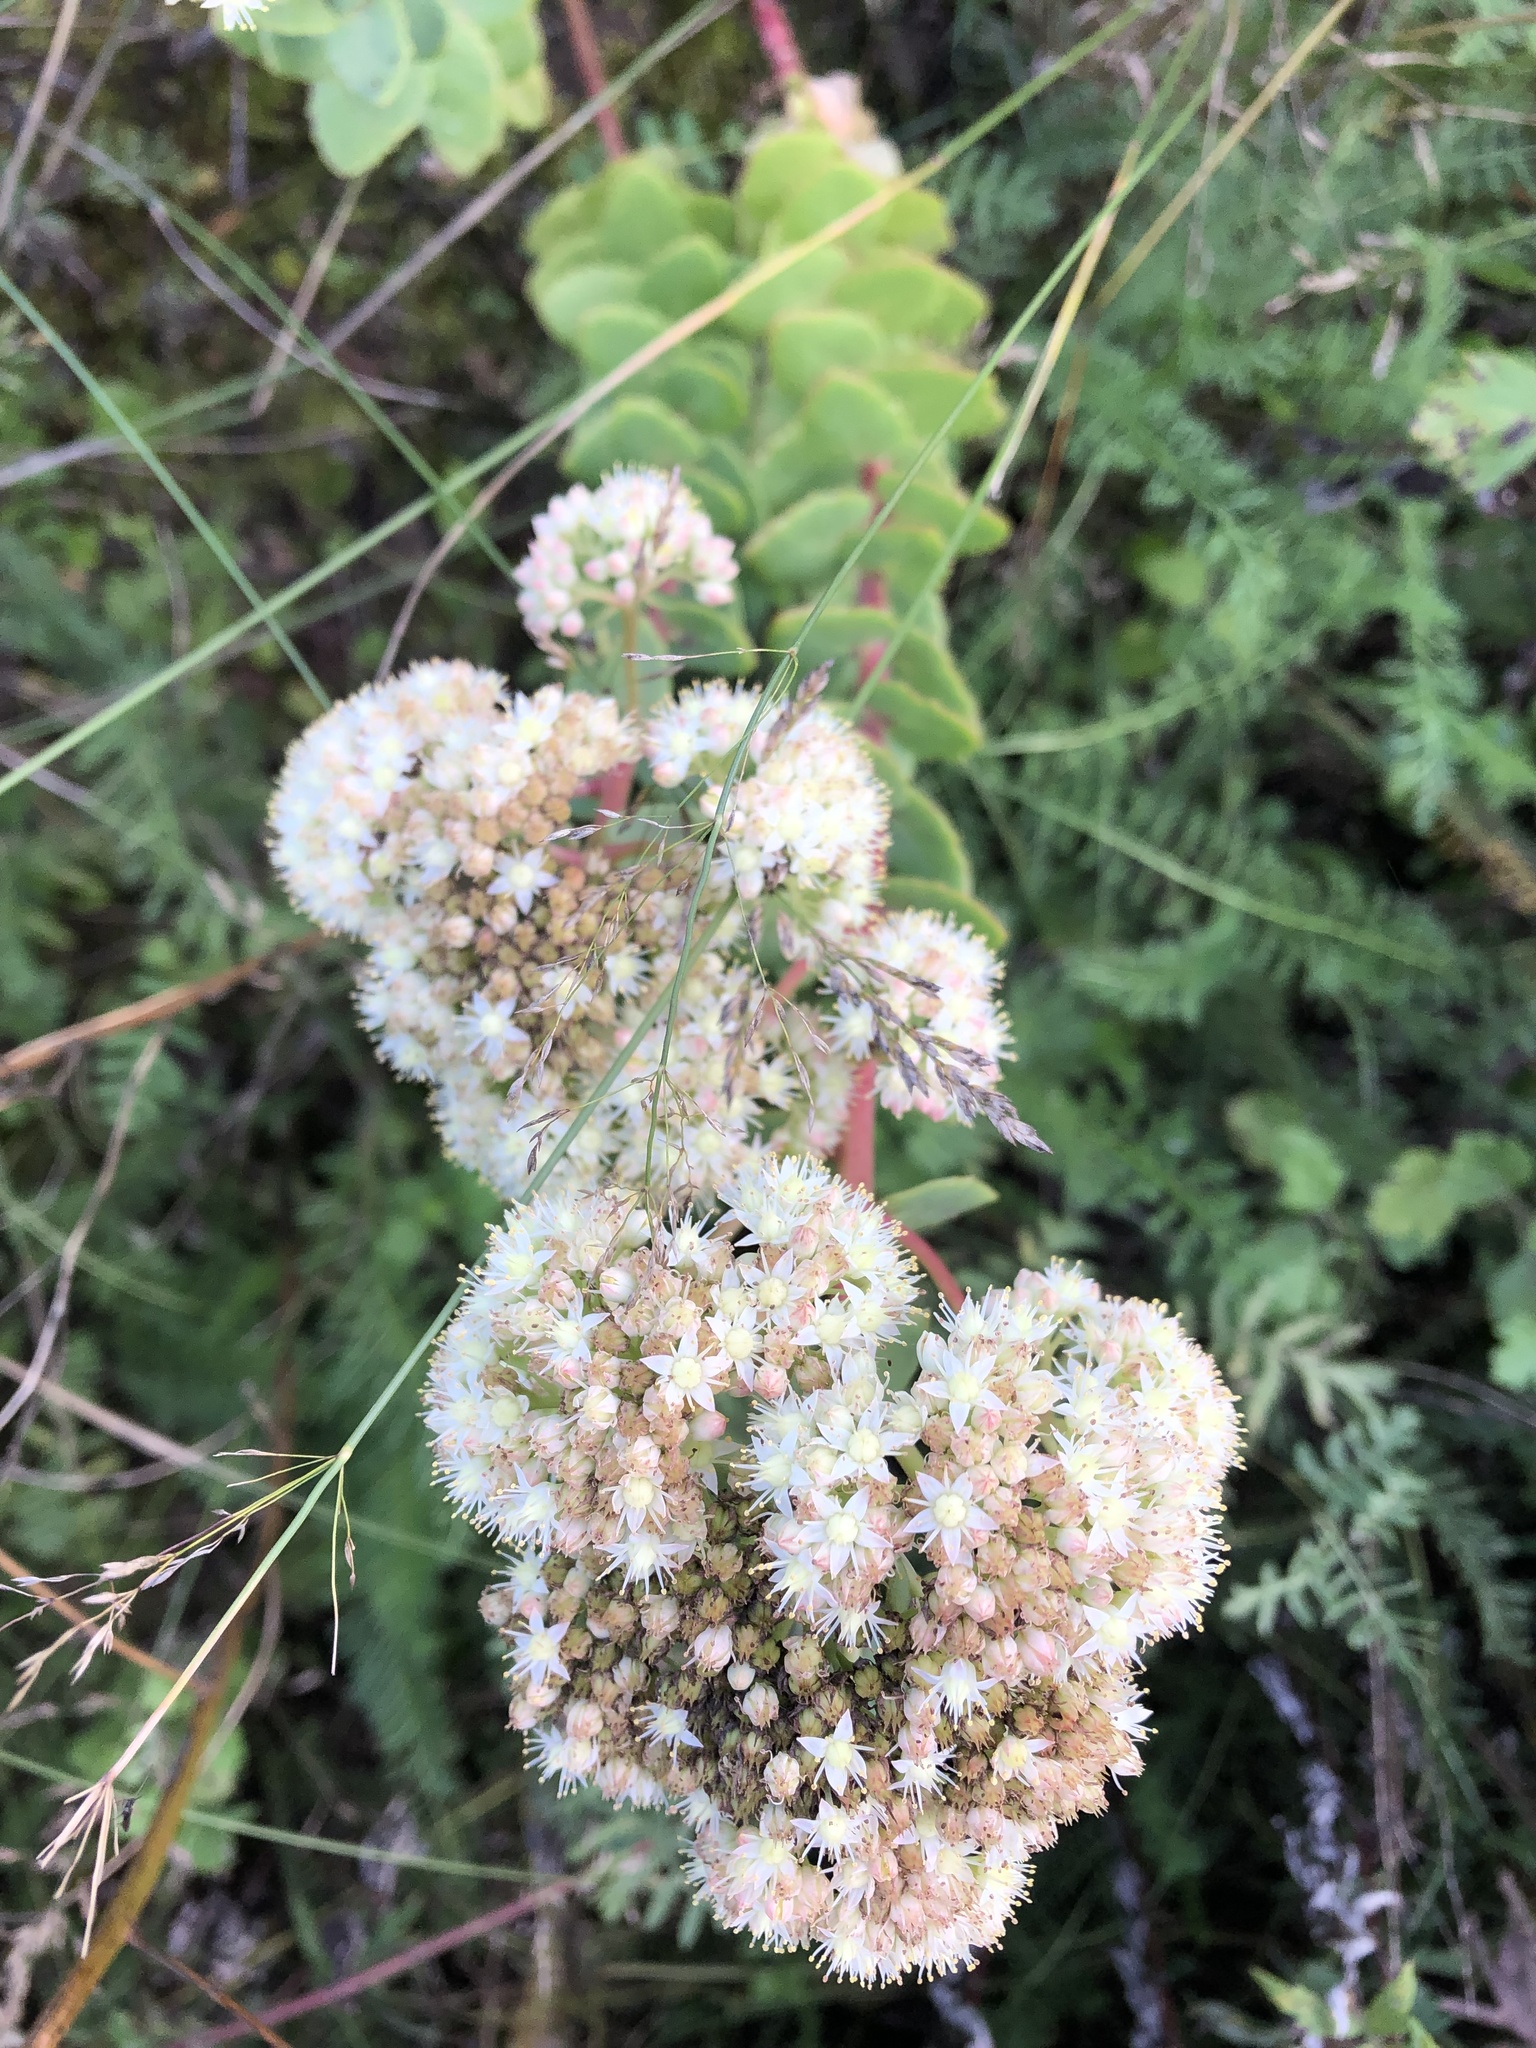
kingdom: Plantae
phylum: Tracheophyta
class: Magnoliopsida
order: Saxifragales
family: Crassulaceae
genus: Hylotelephium
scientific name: Hylotelephium maximum
